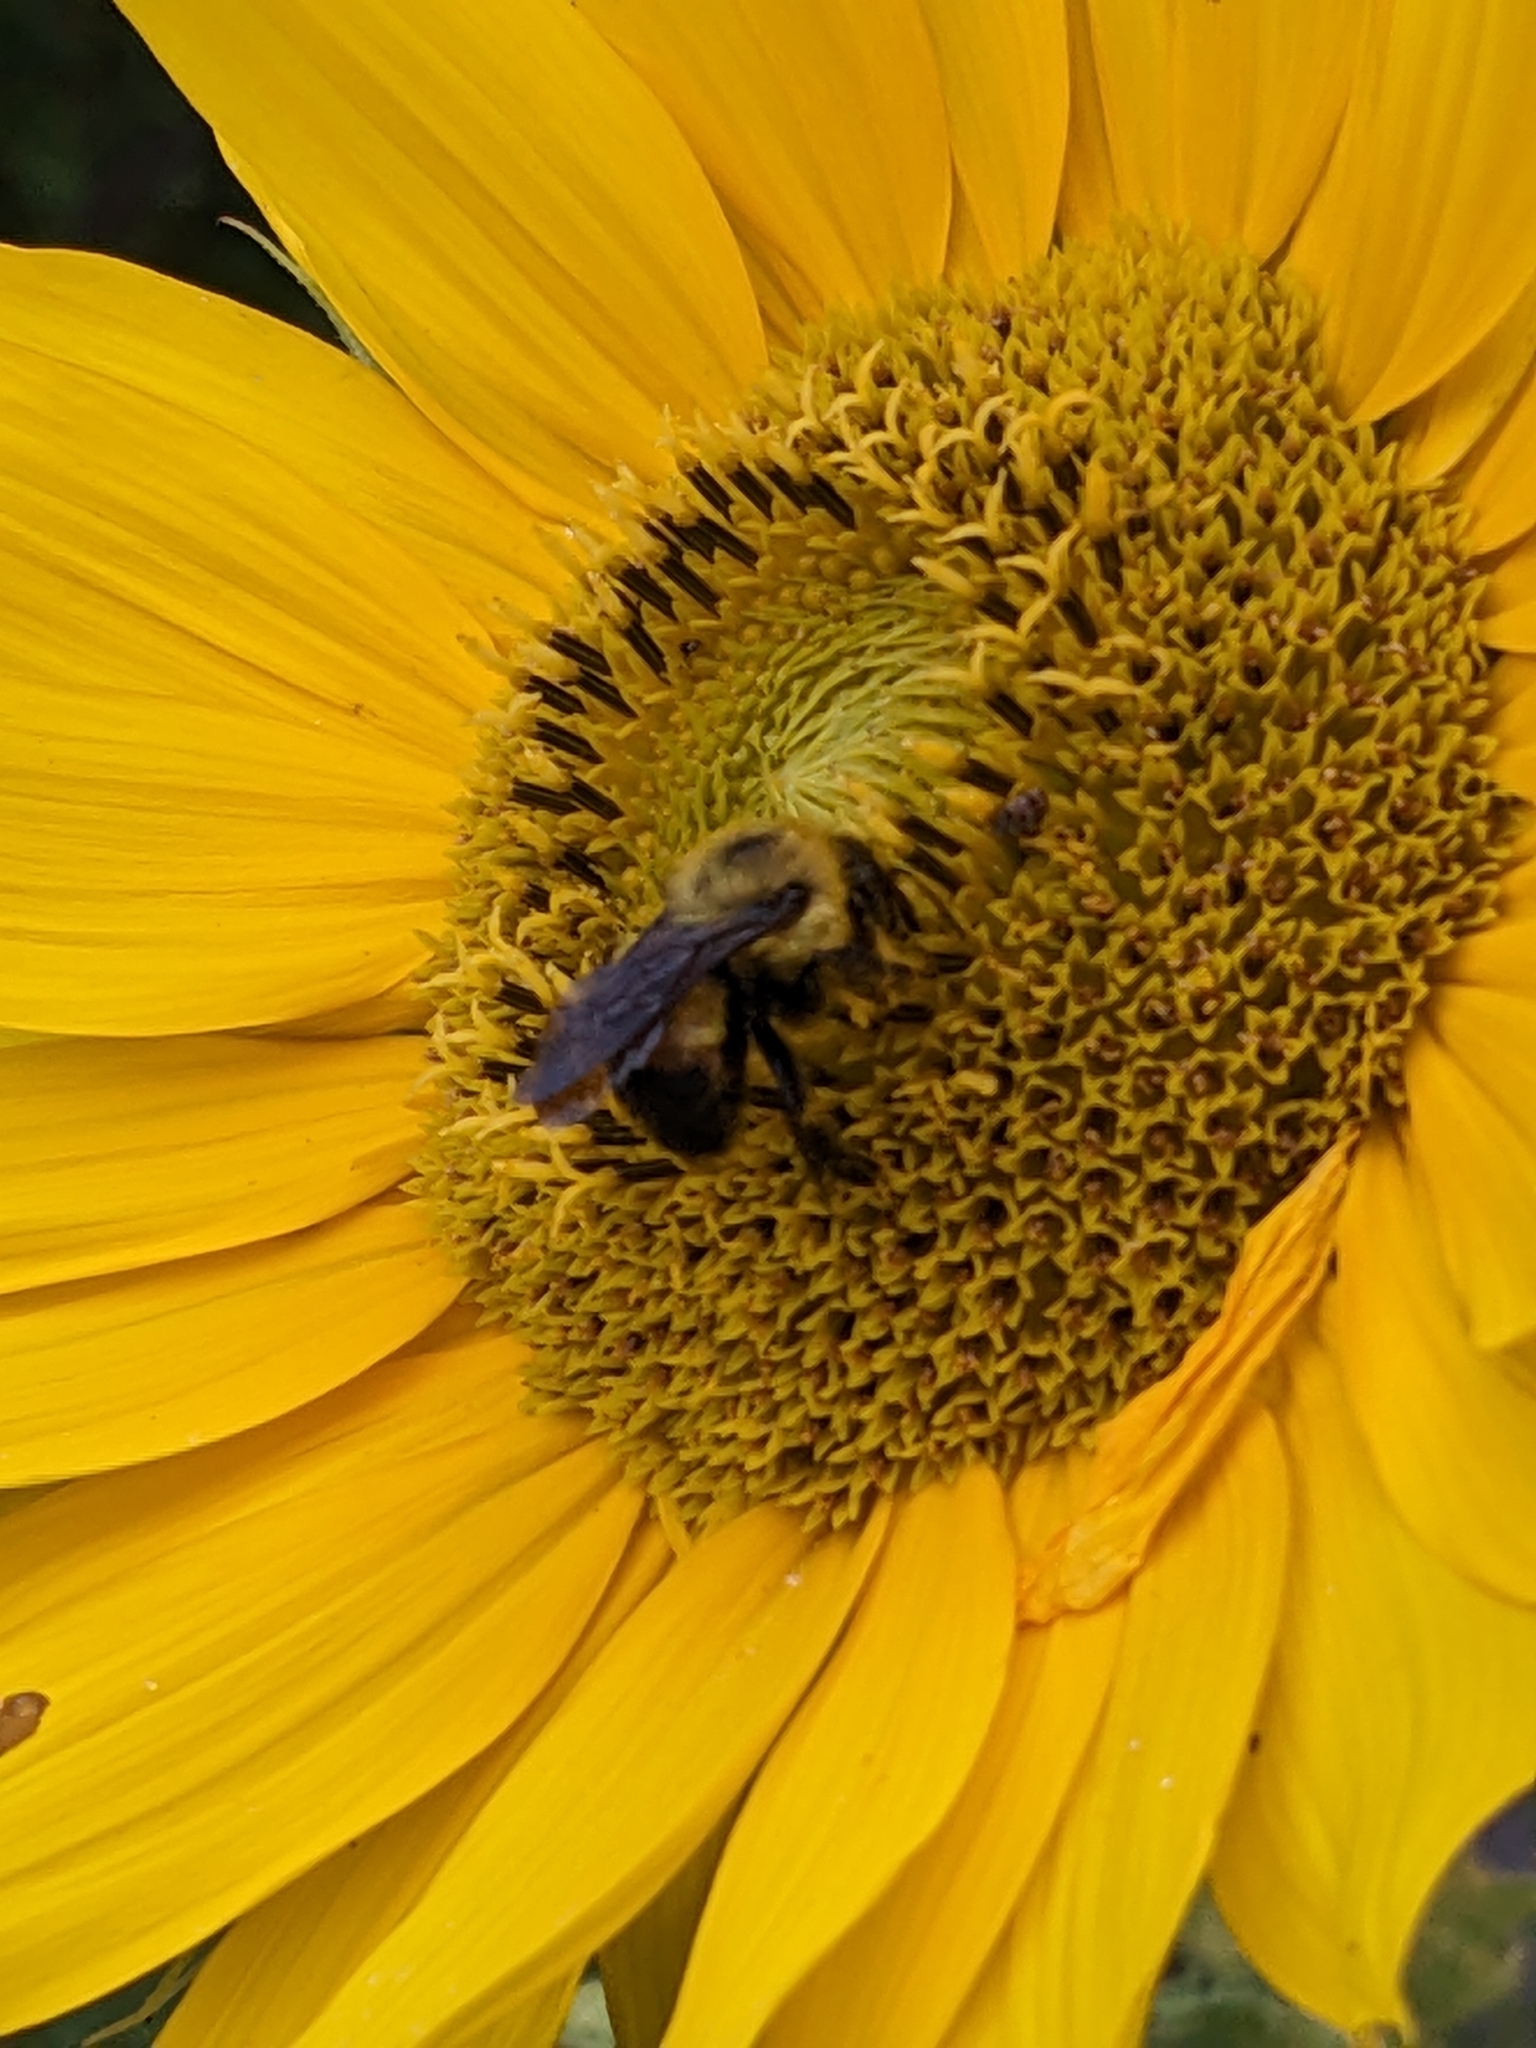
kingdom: Animalia
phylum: Arthropoda
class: Insecta
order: Hymenoptera
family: Apidae
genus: Bombus
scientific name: Bombus griseocollis
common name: Brown-belted bumble bee
